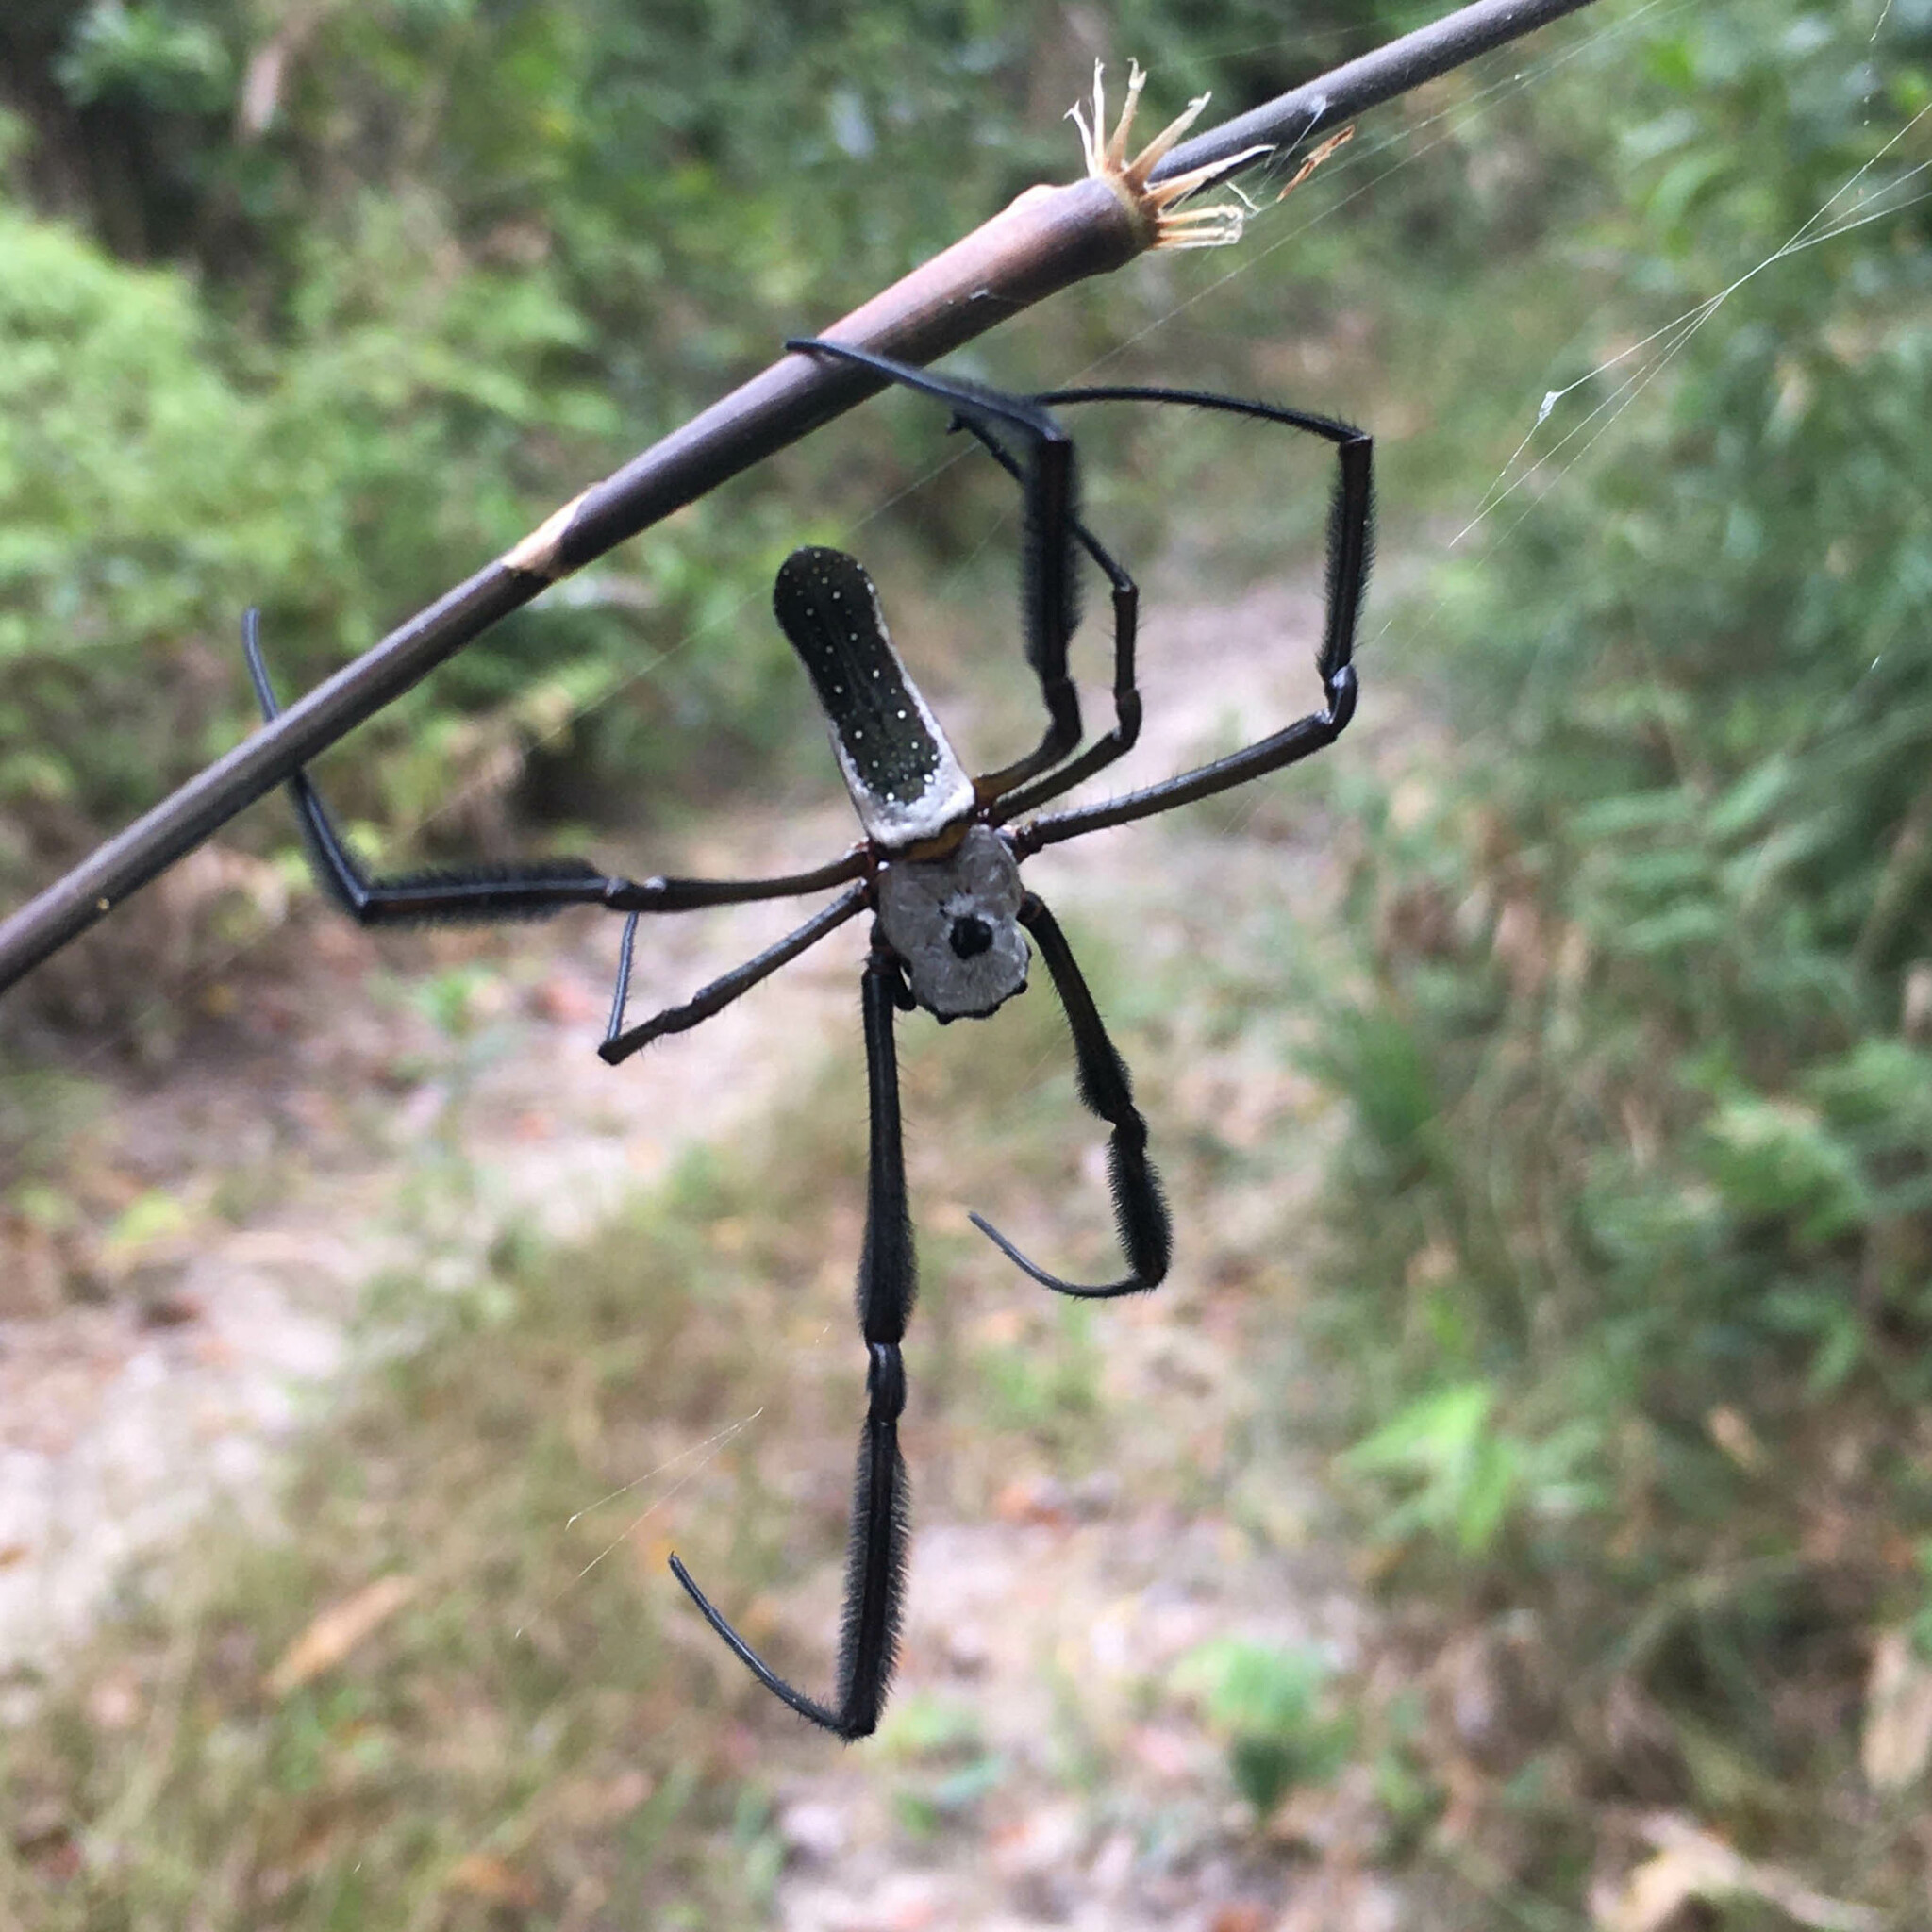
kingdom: Animalia
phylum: Arthropoda
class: Arachnida
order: Araneae
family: Araneidae
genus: Trichonephila
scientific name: Trichonephila clavipes
